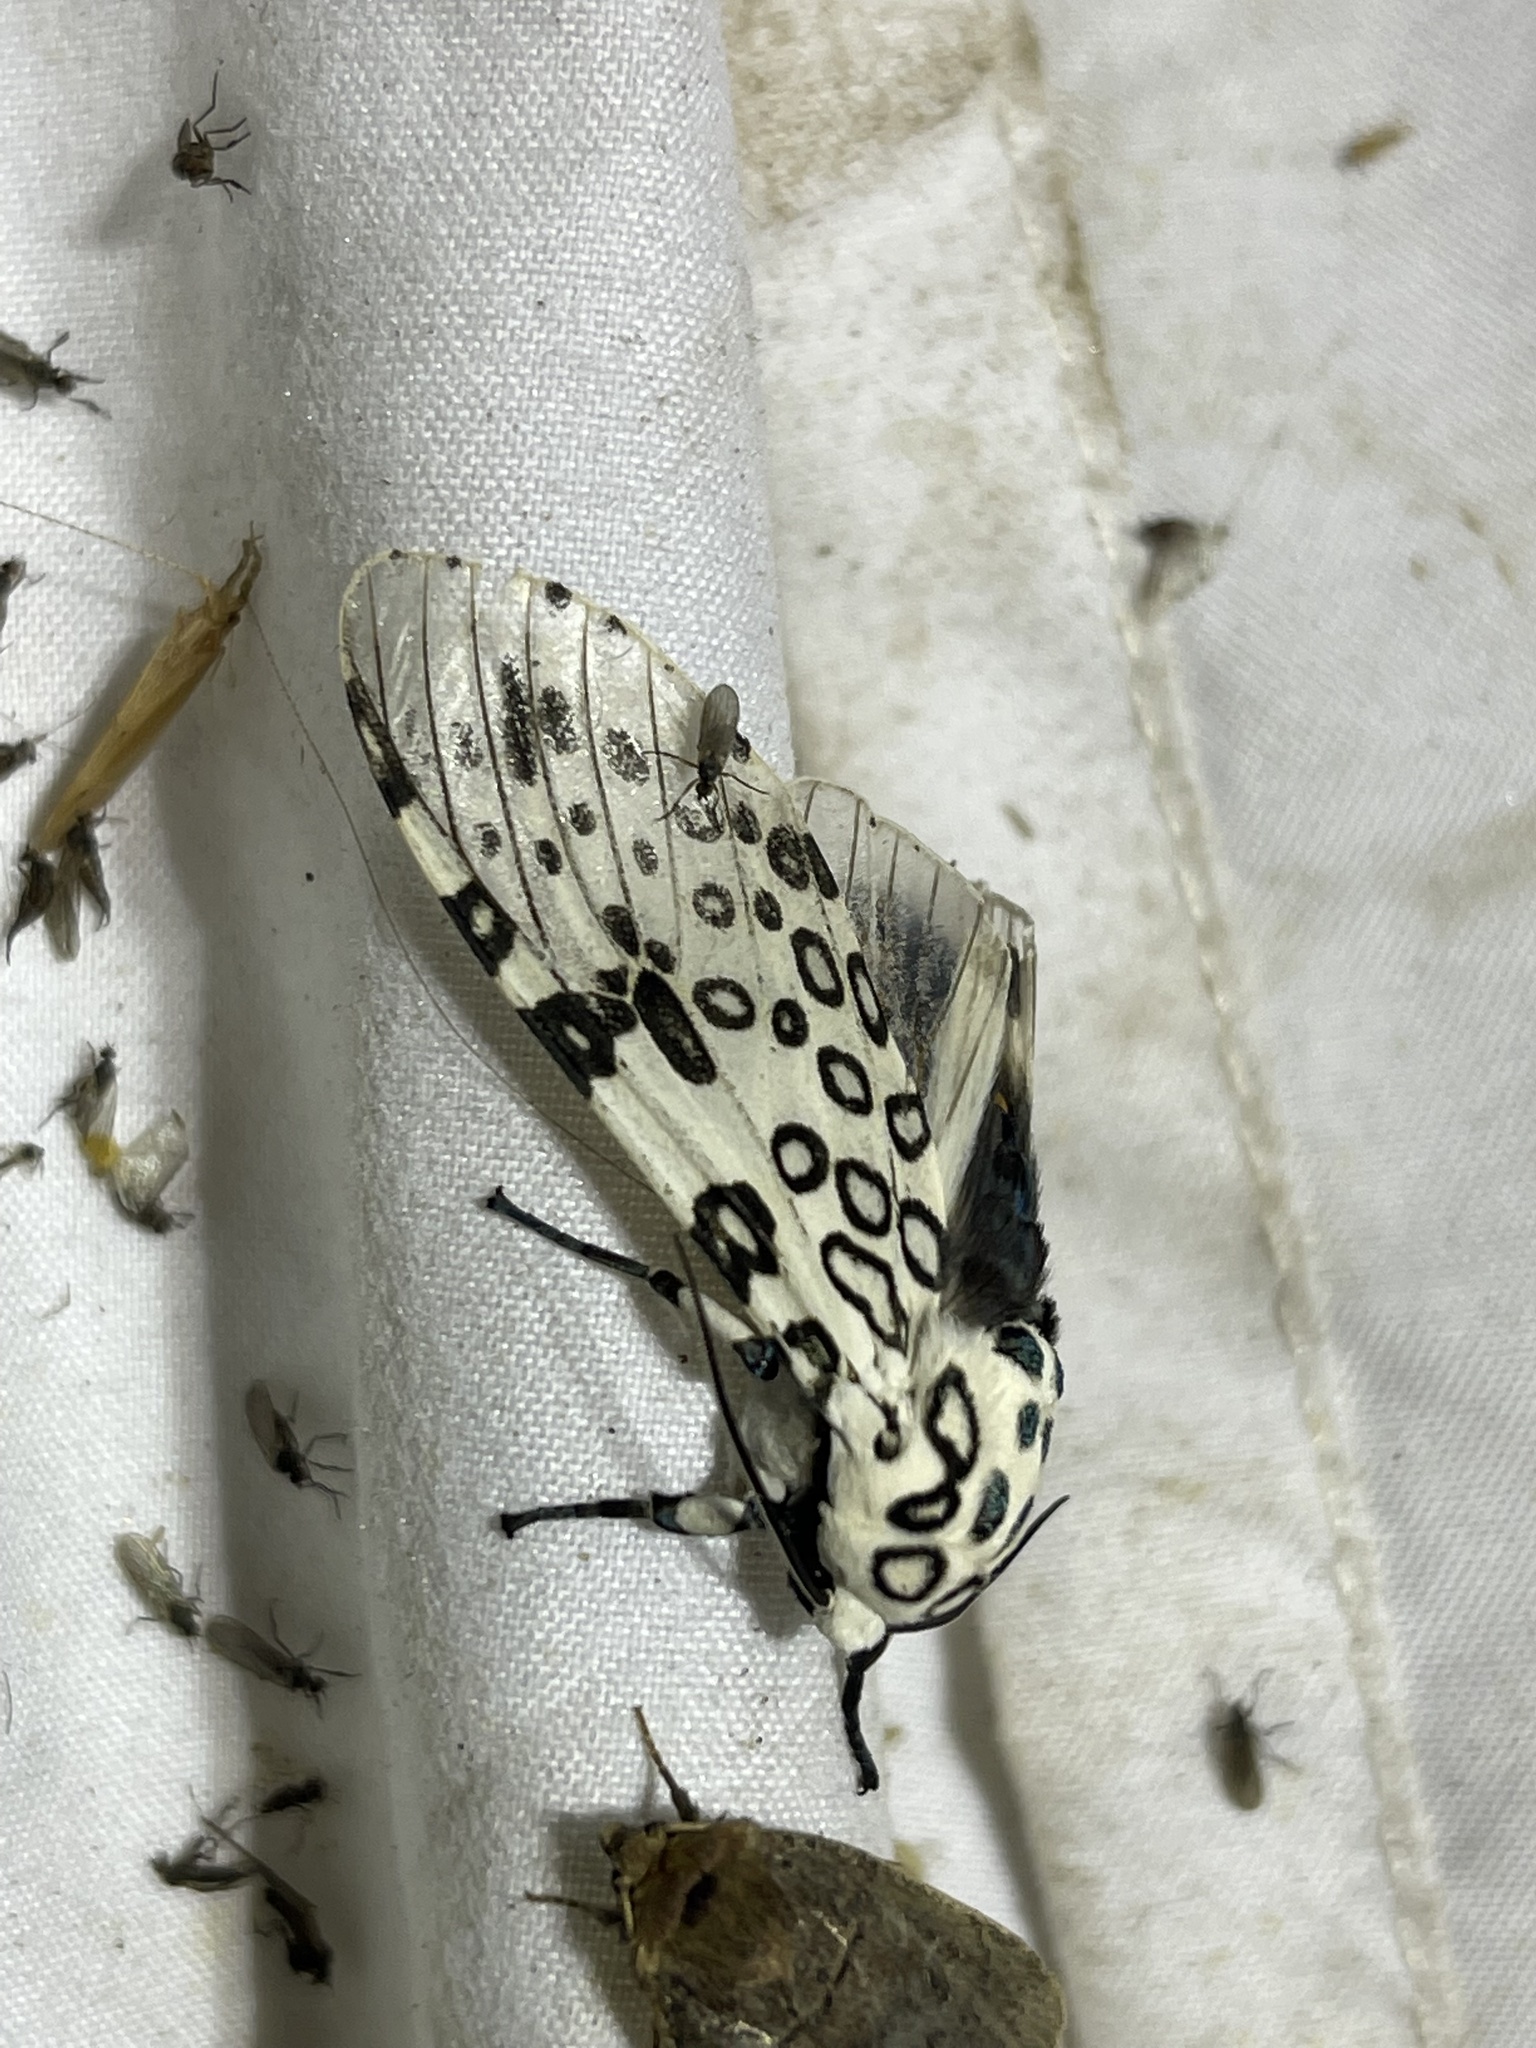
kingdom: Animalia
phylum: Arthropoda
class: Insecta
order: Lepidoptera
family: Erebidae
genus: Hypercompe
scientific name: Hypercompe scribonia
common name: Giant leopard moth
